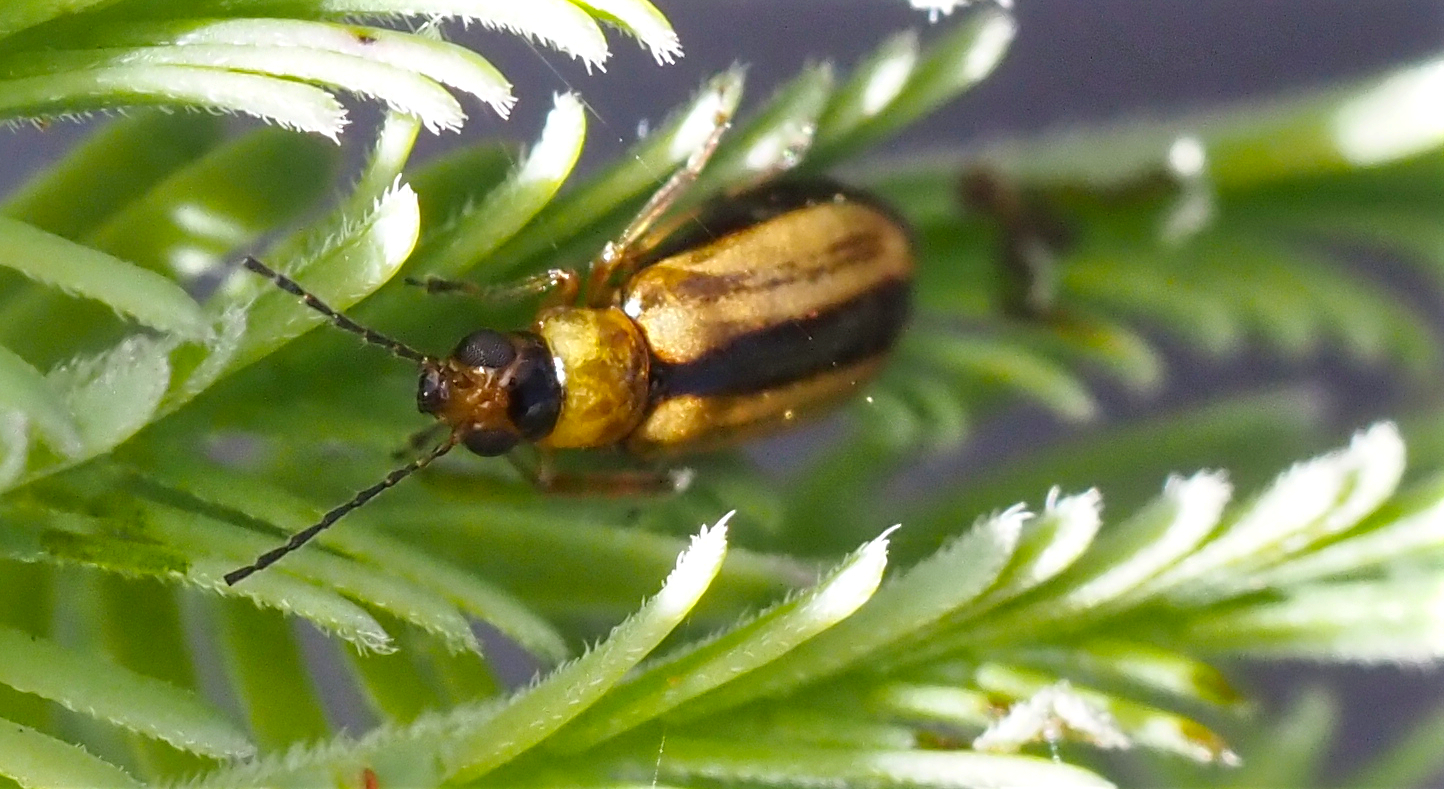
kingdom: Animalia
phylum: Arthropoda
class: Insecta
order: Coleoptera
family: Chrysomelidae
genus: Monolepta
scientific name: Monolepta
